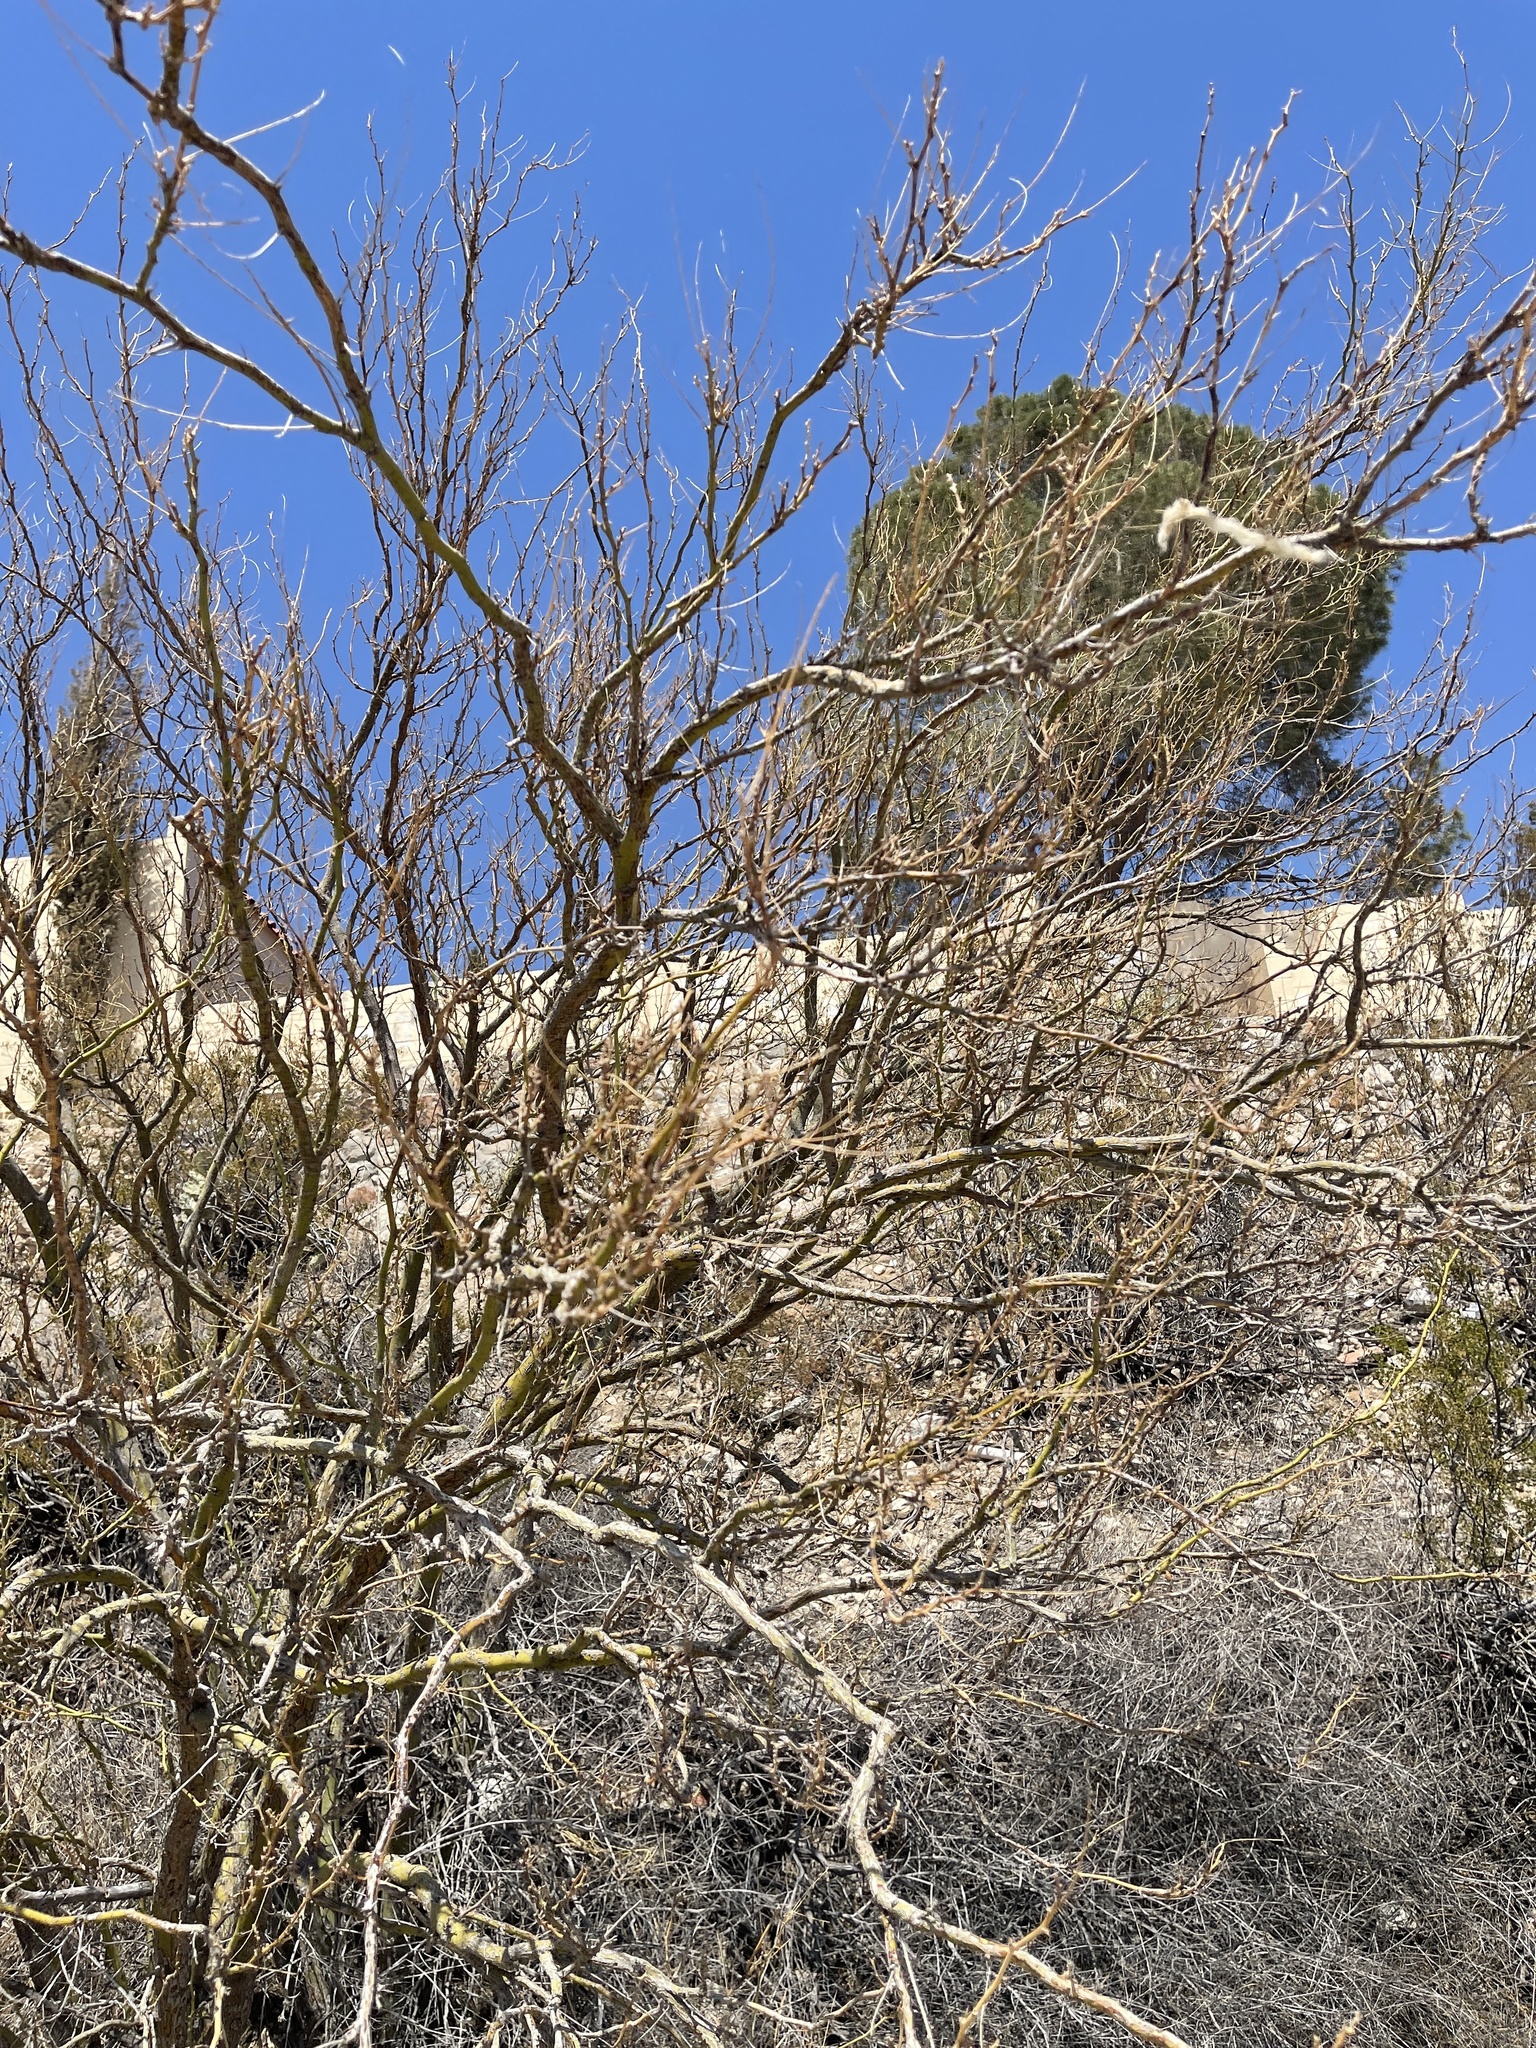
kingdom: Plantae
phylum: Tracheophyta
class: Magnoliopsida
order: Fabales
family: Fabaceae
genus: Parkinsonia
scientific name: Parkinsonia aculeata
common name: Jerusalem thorn
